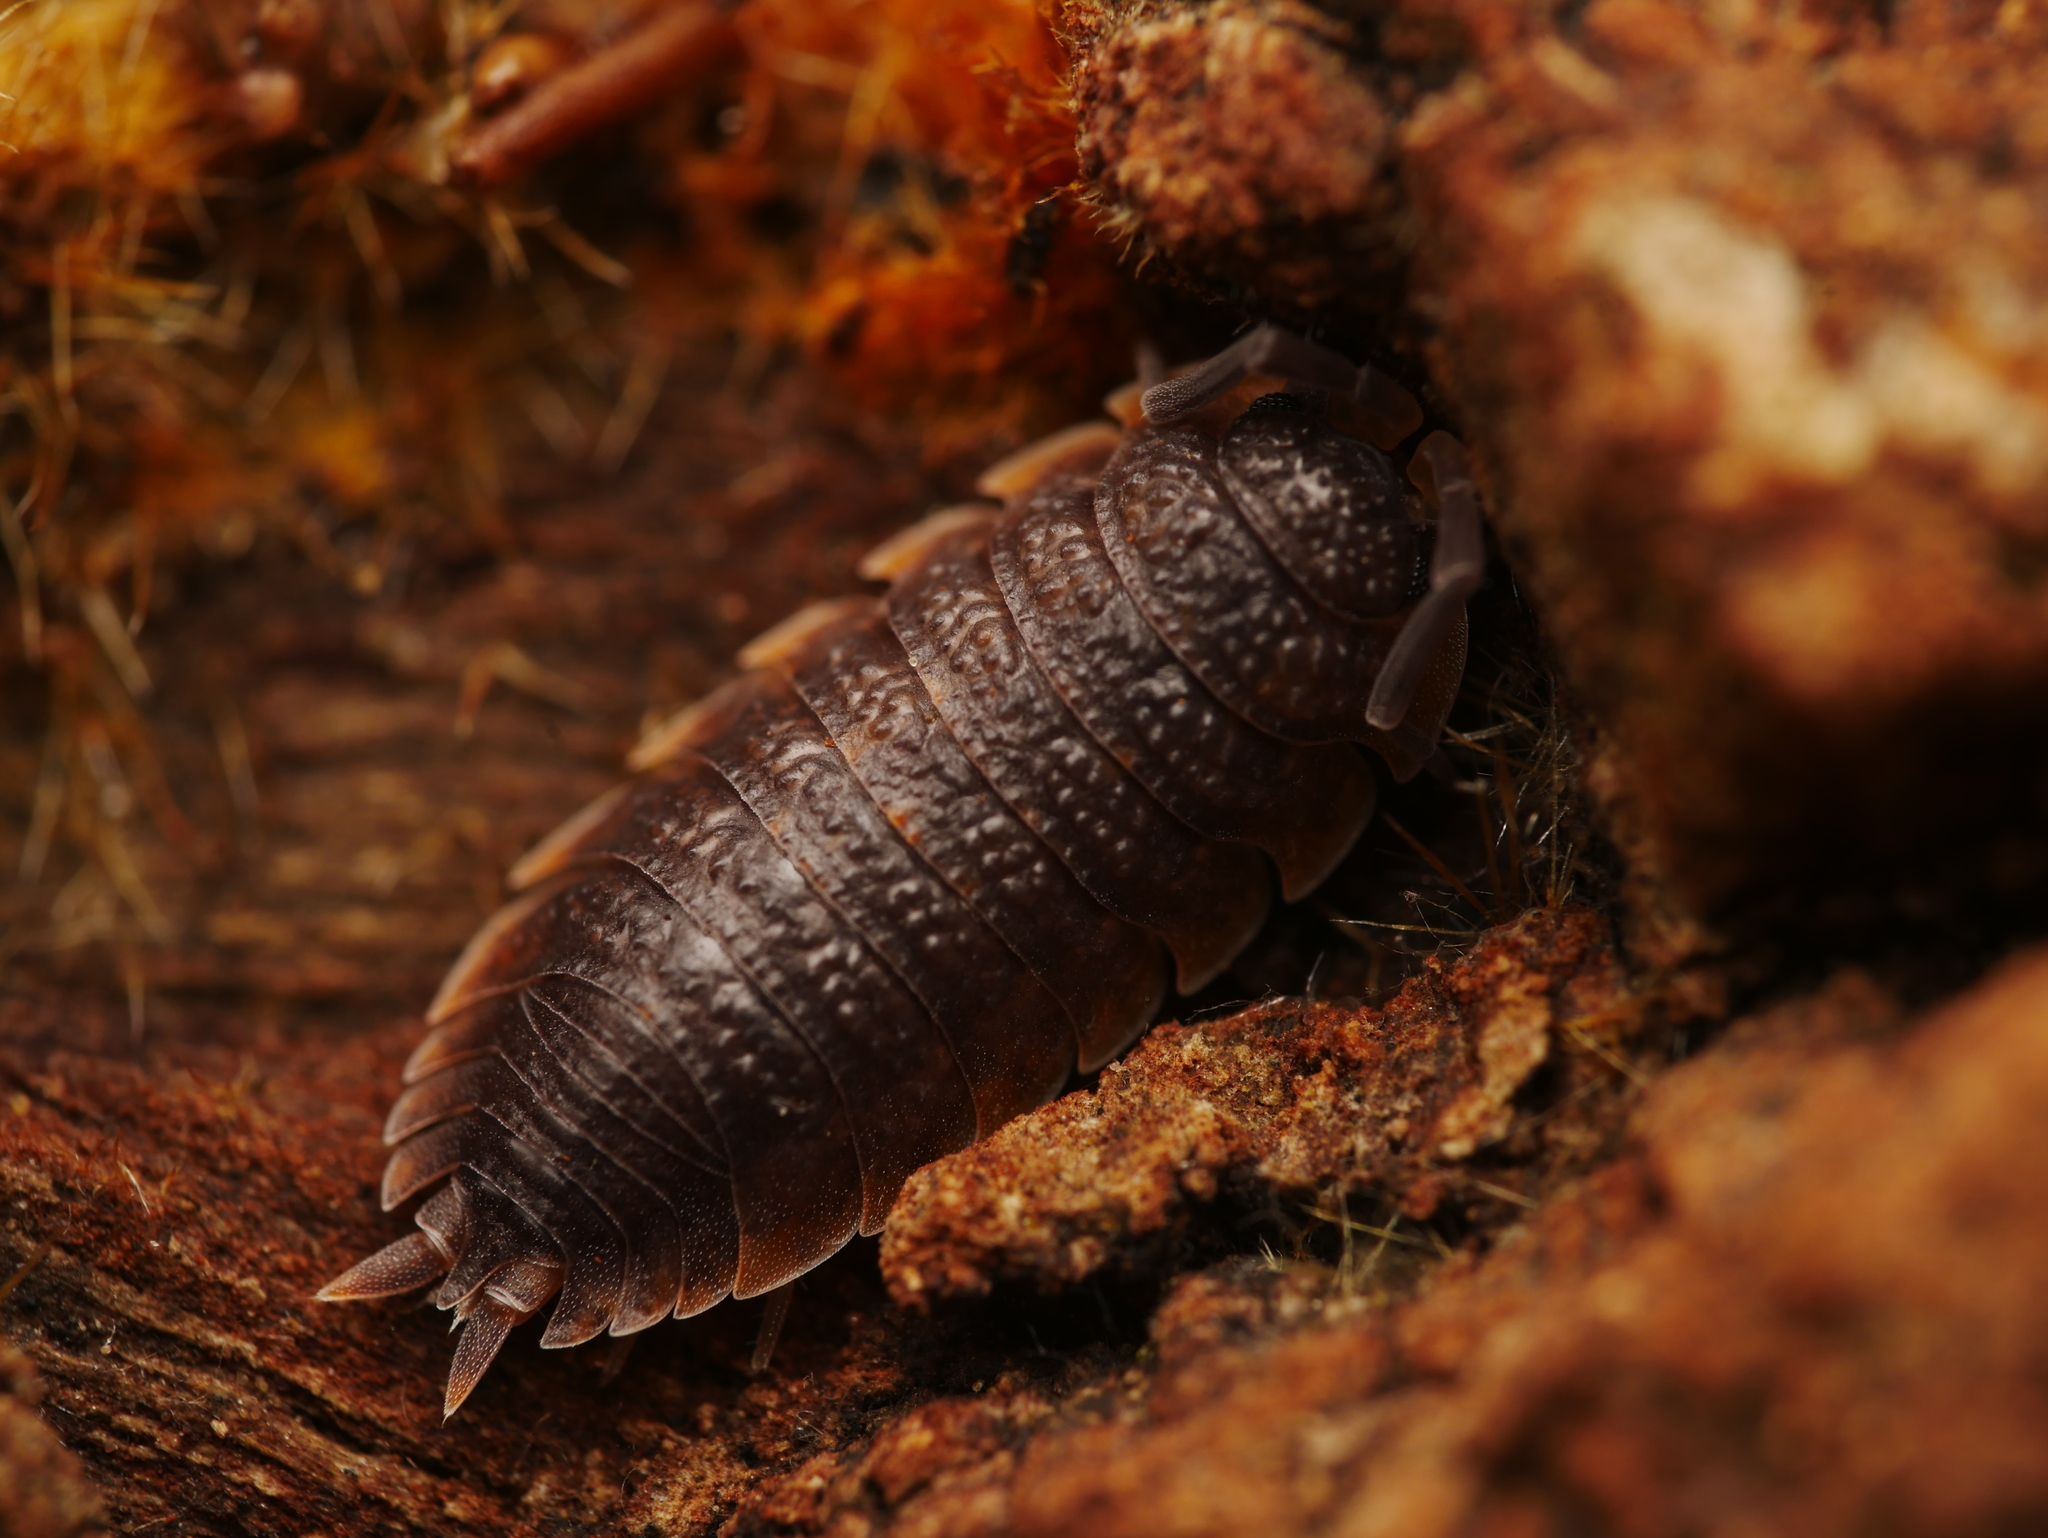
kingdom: Animalia
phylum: Arthropoda
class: Malacostraca
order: Isopoda
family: Porcellionidae
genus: Porcellio
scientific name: Porcellio scaber
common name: Common rough woodlouse
